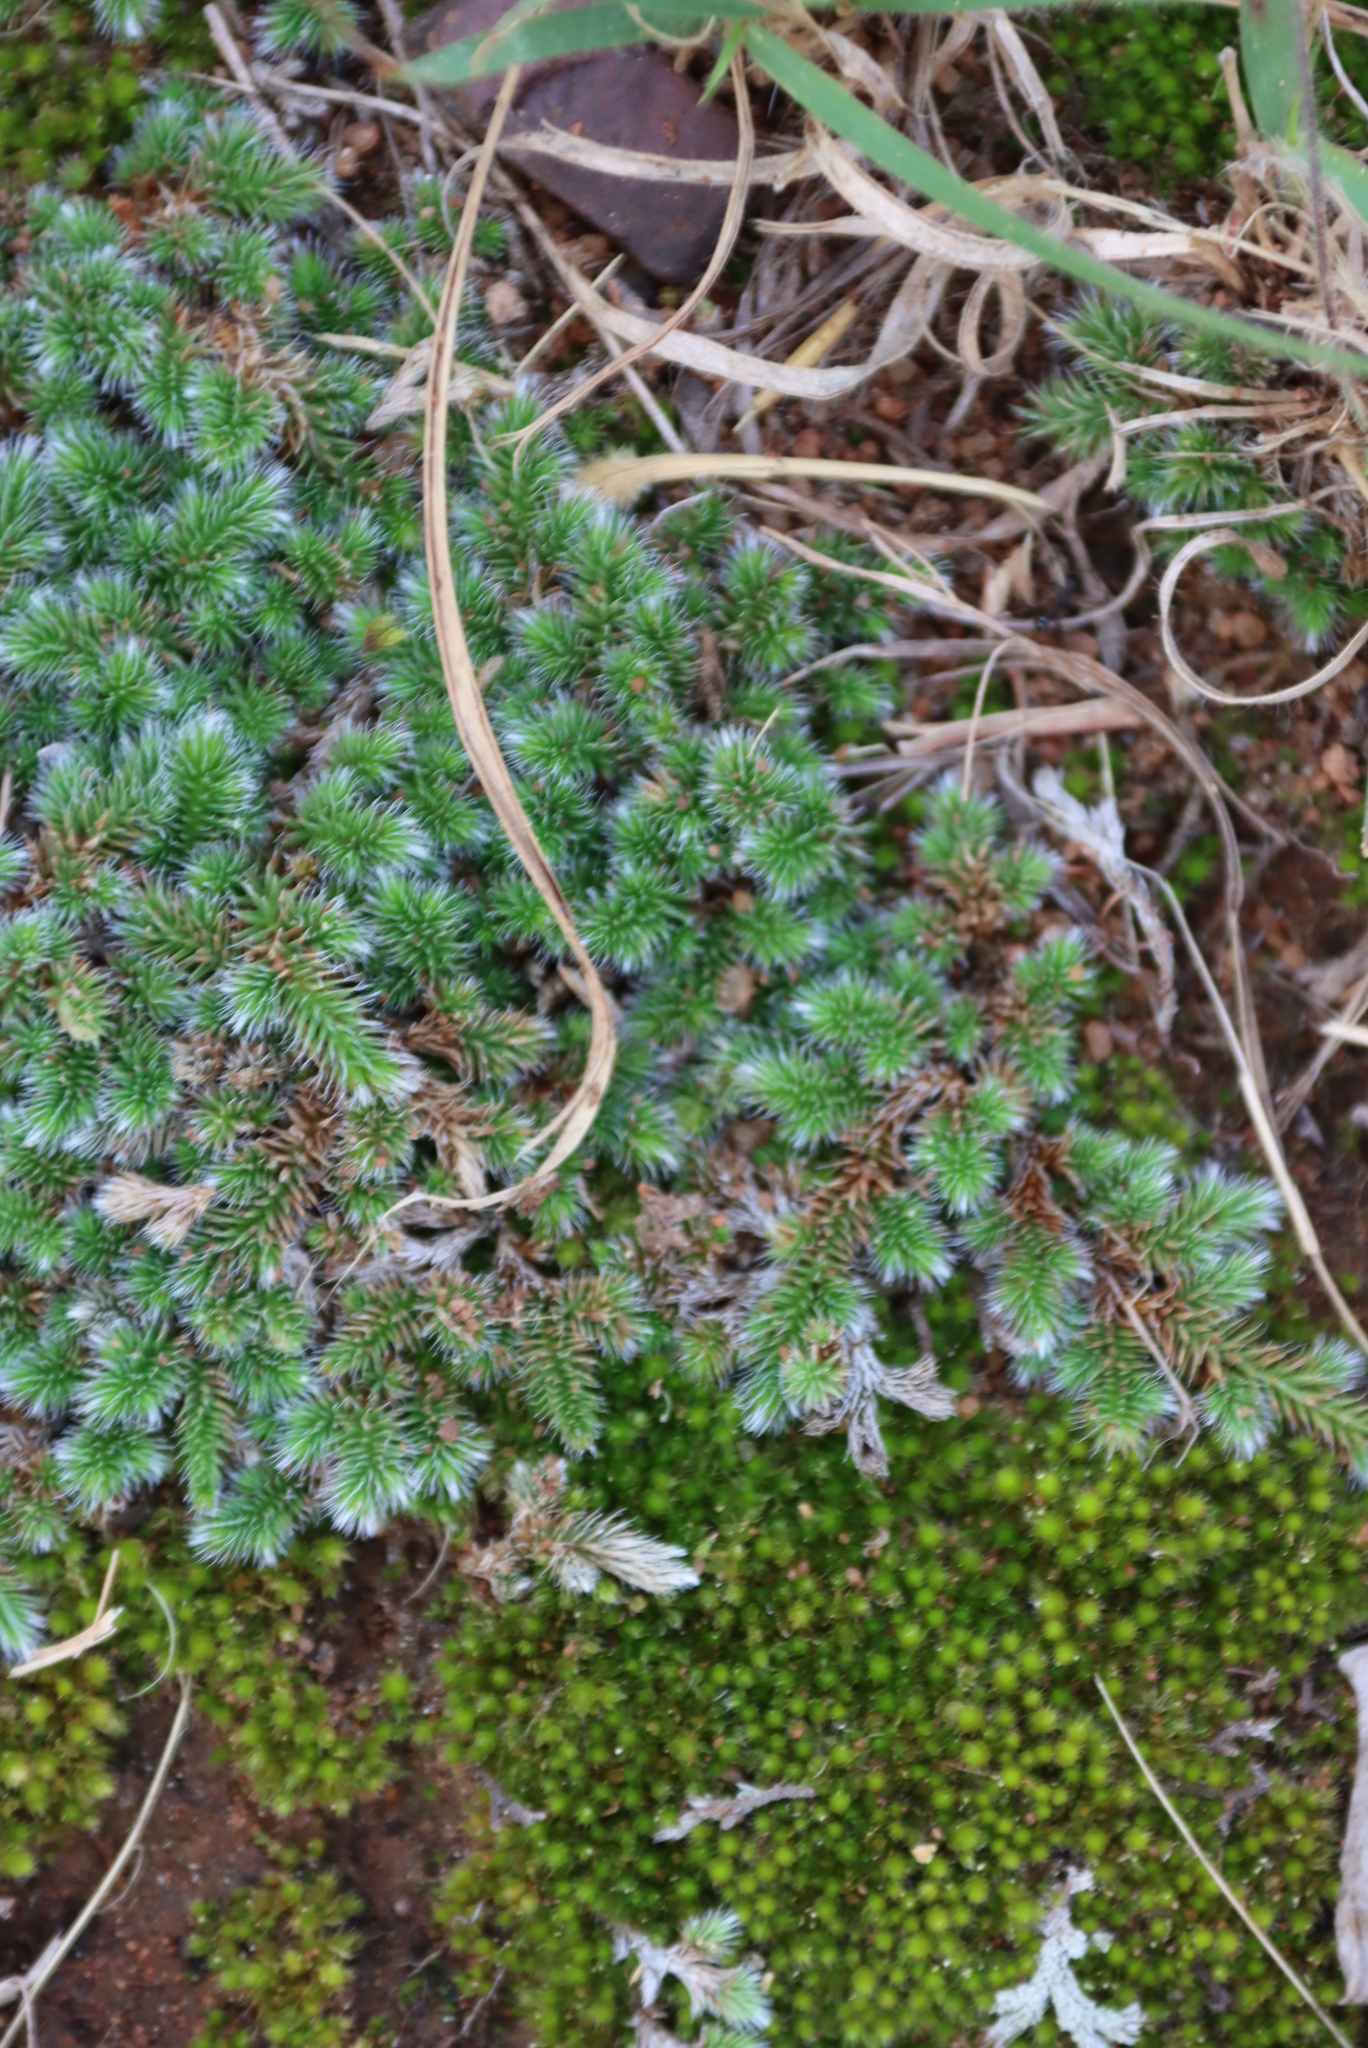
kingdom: Plantae
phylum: Tracheophyta
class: Lycopodiopsida
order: Selaginellales
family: Selaginellaceae
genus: Selaginella
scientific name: Selaginella dregei
